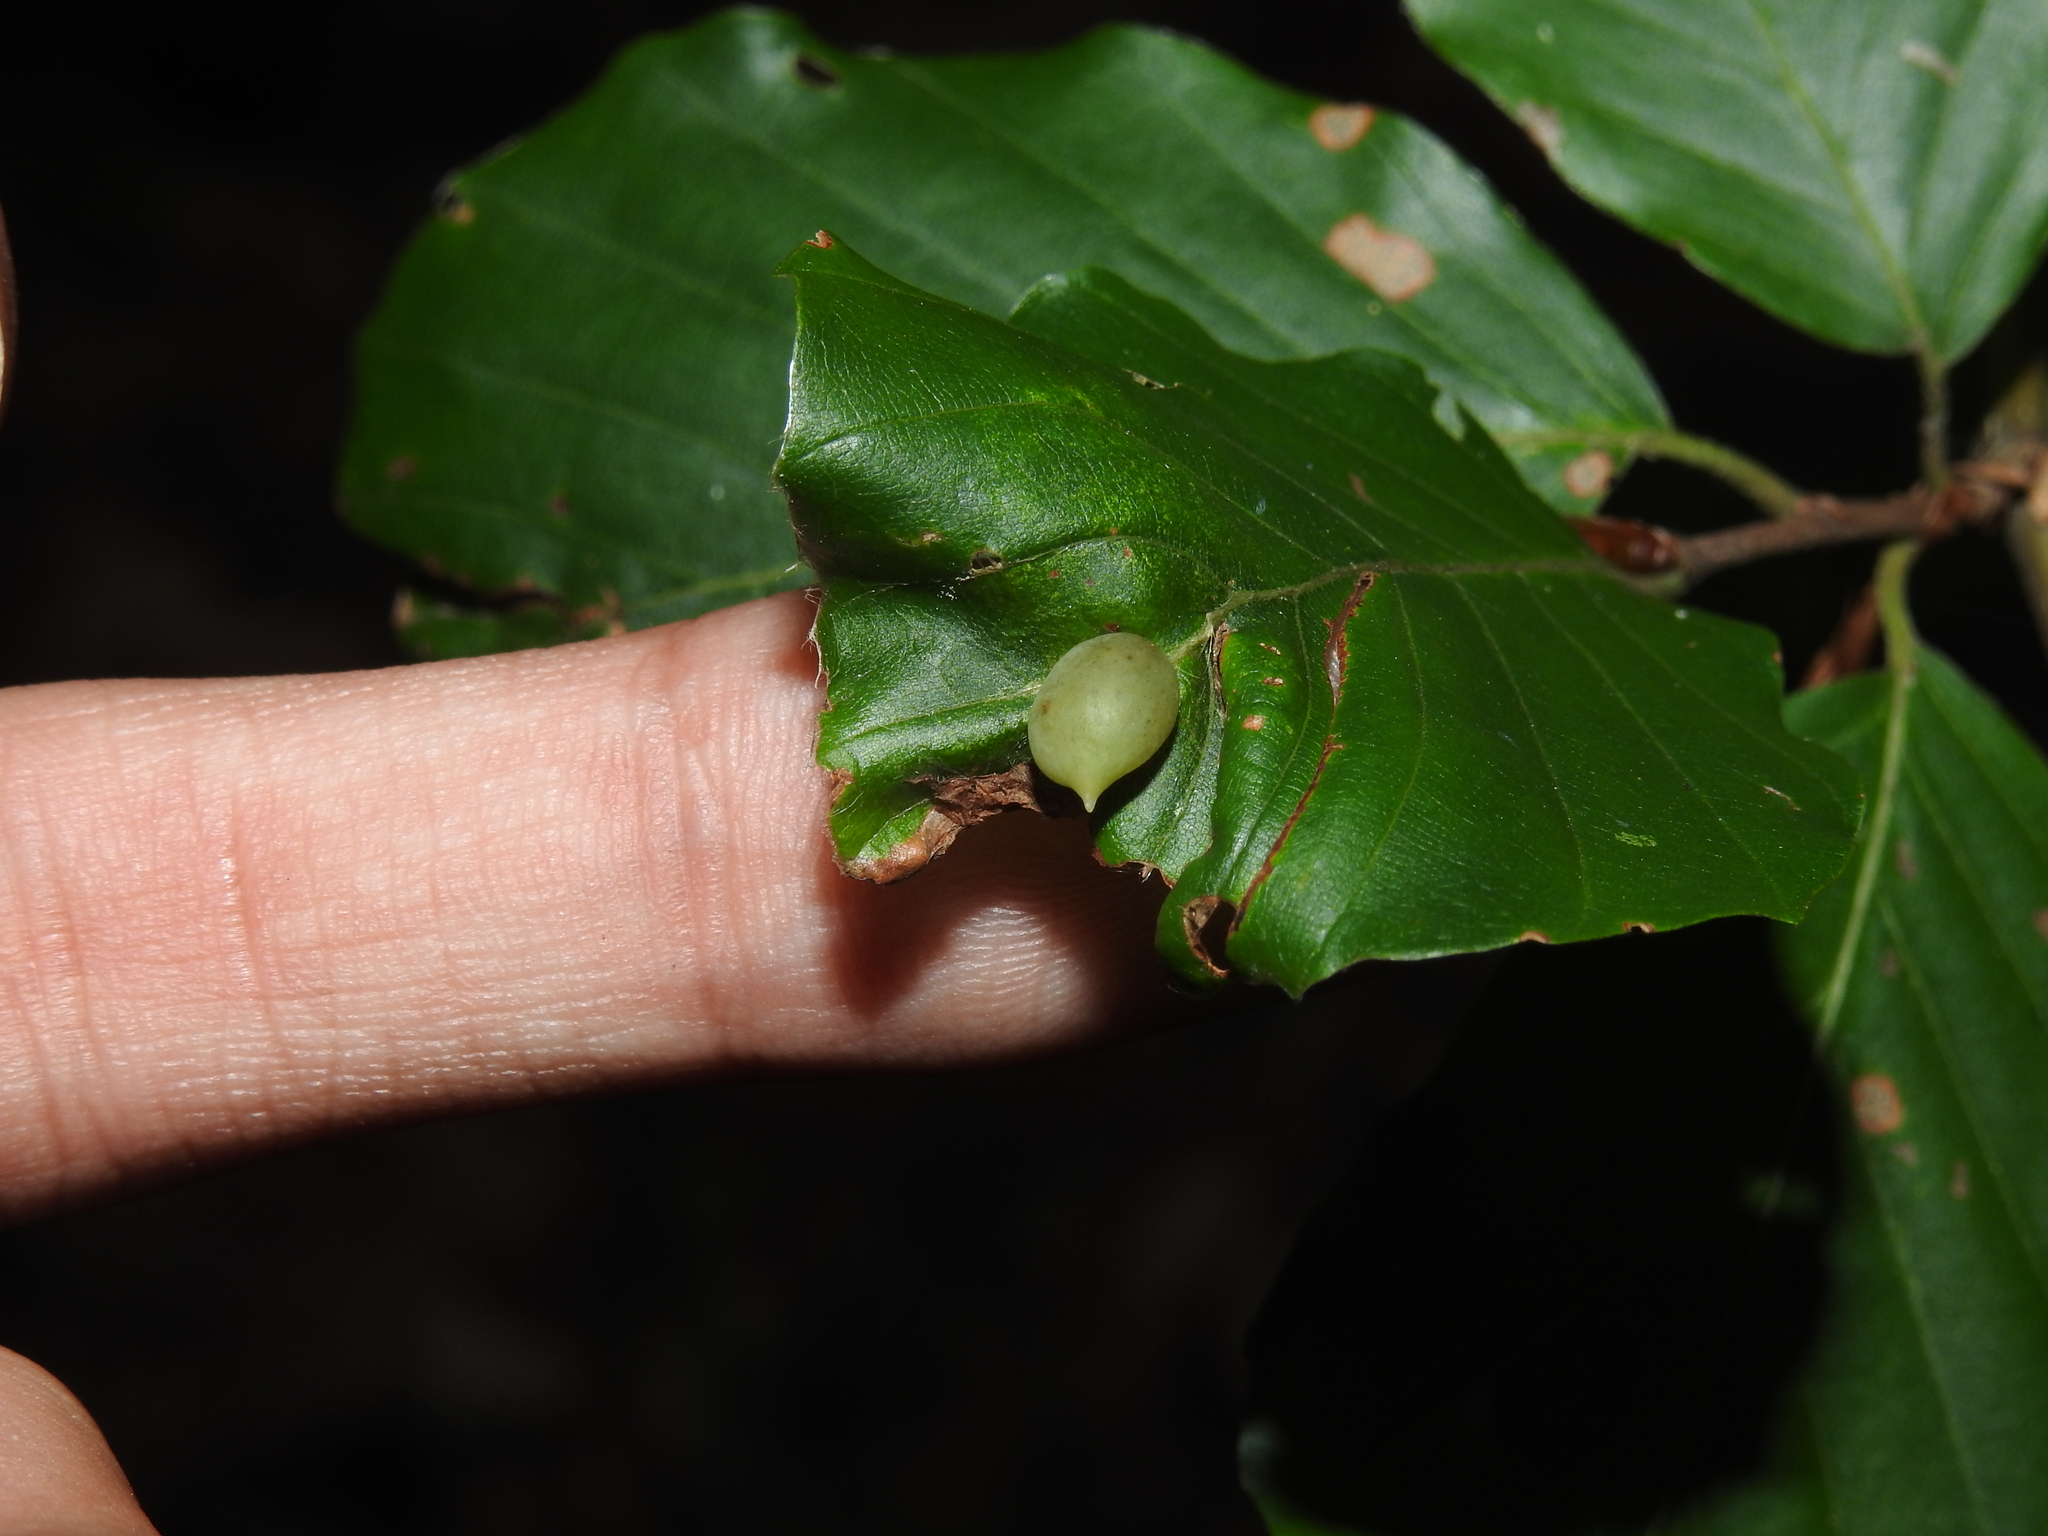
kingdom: Animalia
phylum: Arthropoda
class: Insecta
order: Diptera
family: Cecidomyiidae
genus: Mikiola
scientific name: Mikiola fagi
